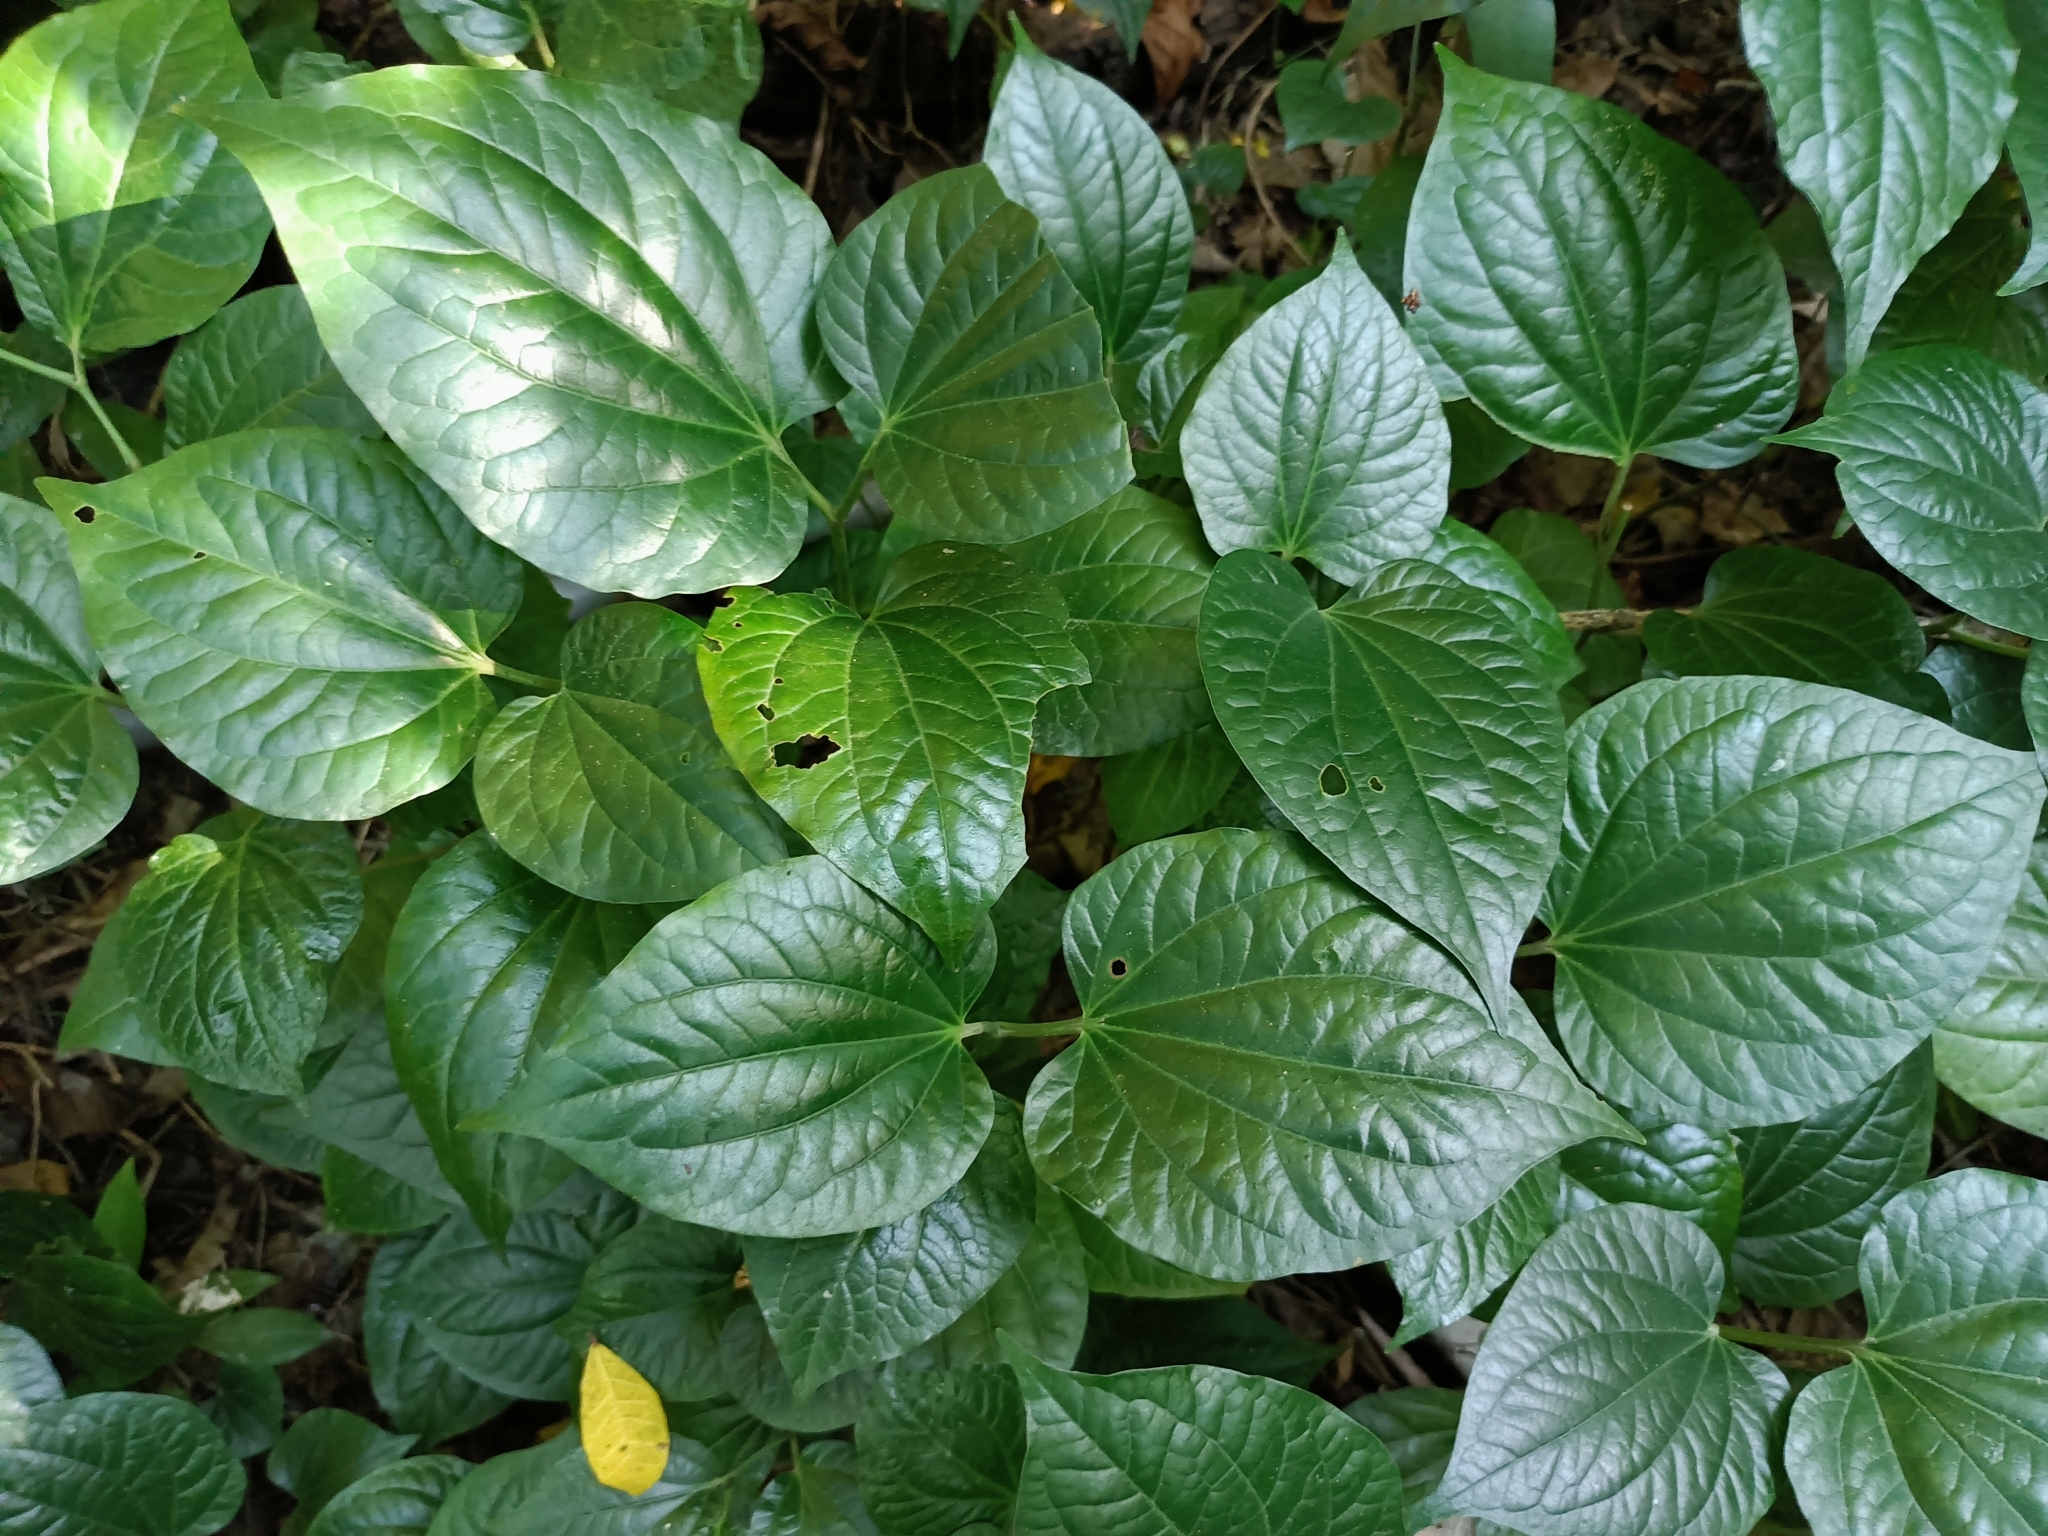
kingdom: Plantae
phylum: Tracheophyta
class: Magnoliopsida
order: Piperales
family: Piperaceae
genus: Piper
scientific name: Piper sarmentosum
